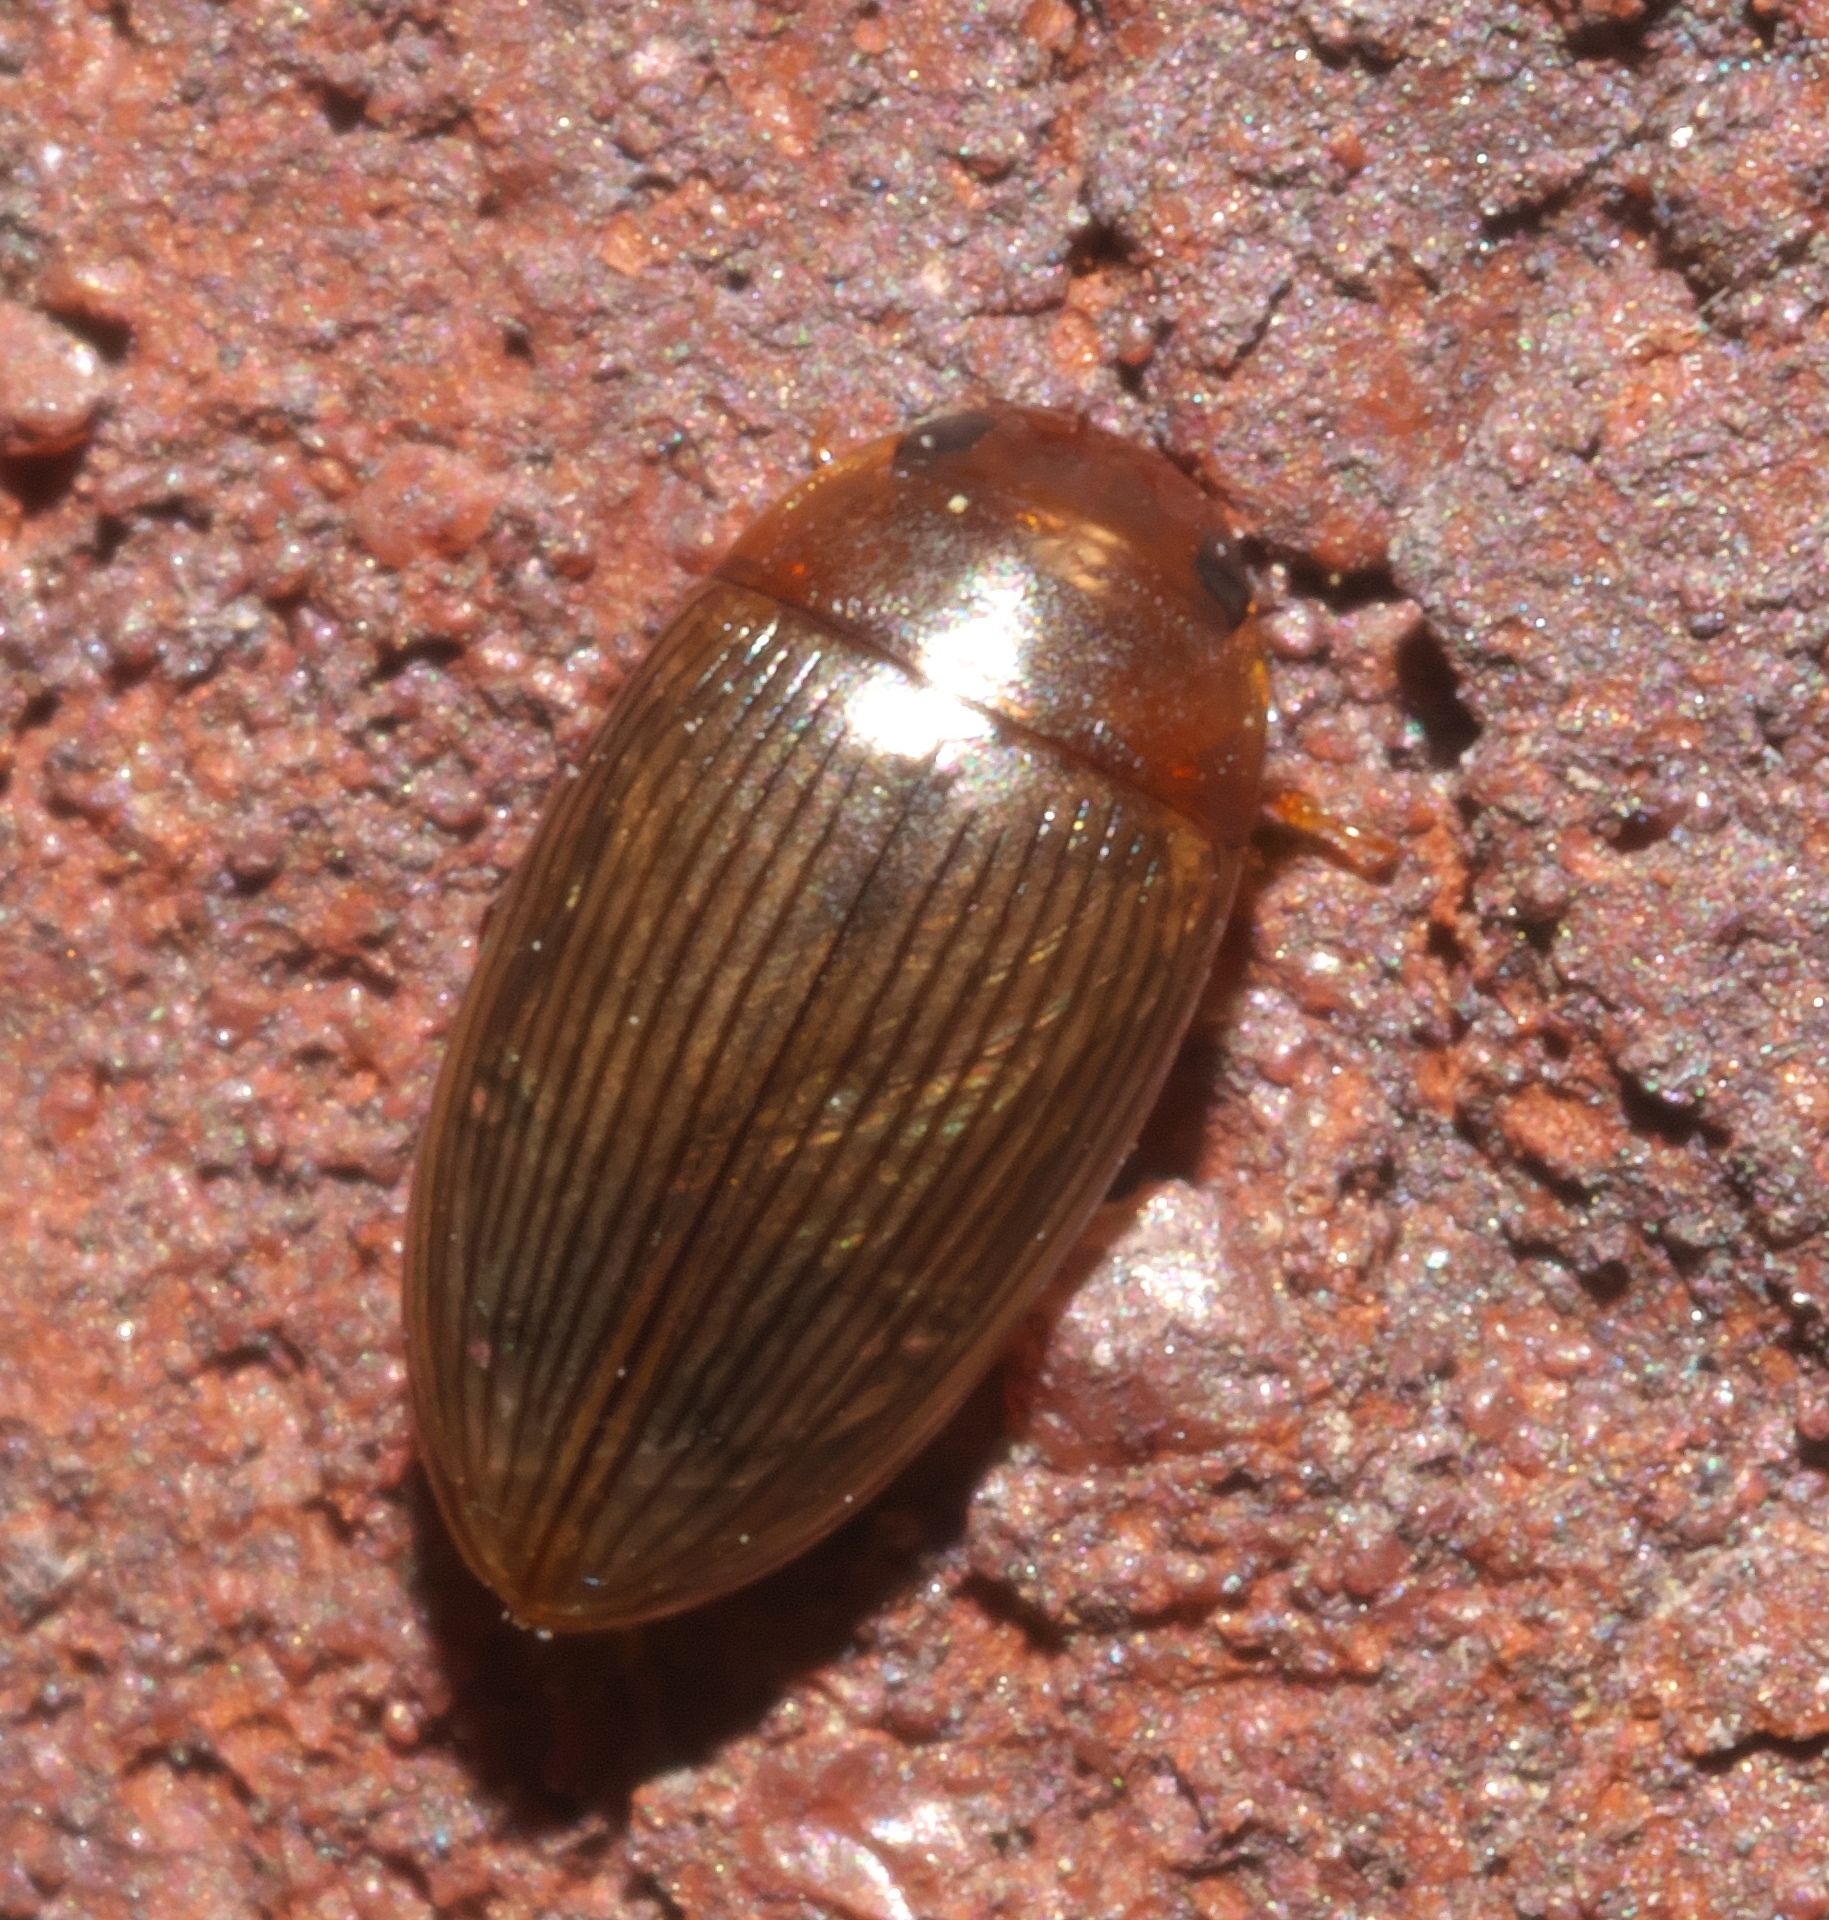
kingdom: Animalia
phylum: Arthropoda
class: Insecta
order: Coleoptera
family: Dytiscidae
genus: Copelatus
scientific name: Copelatus glyphicus
